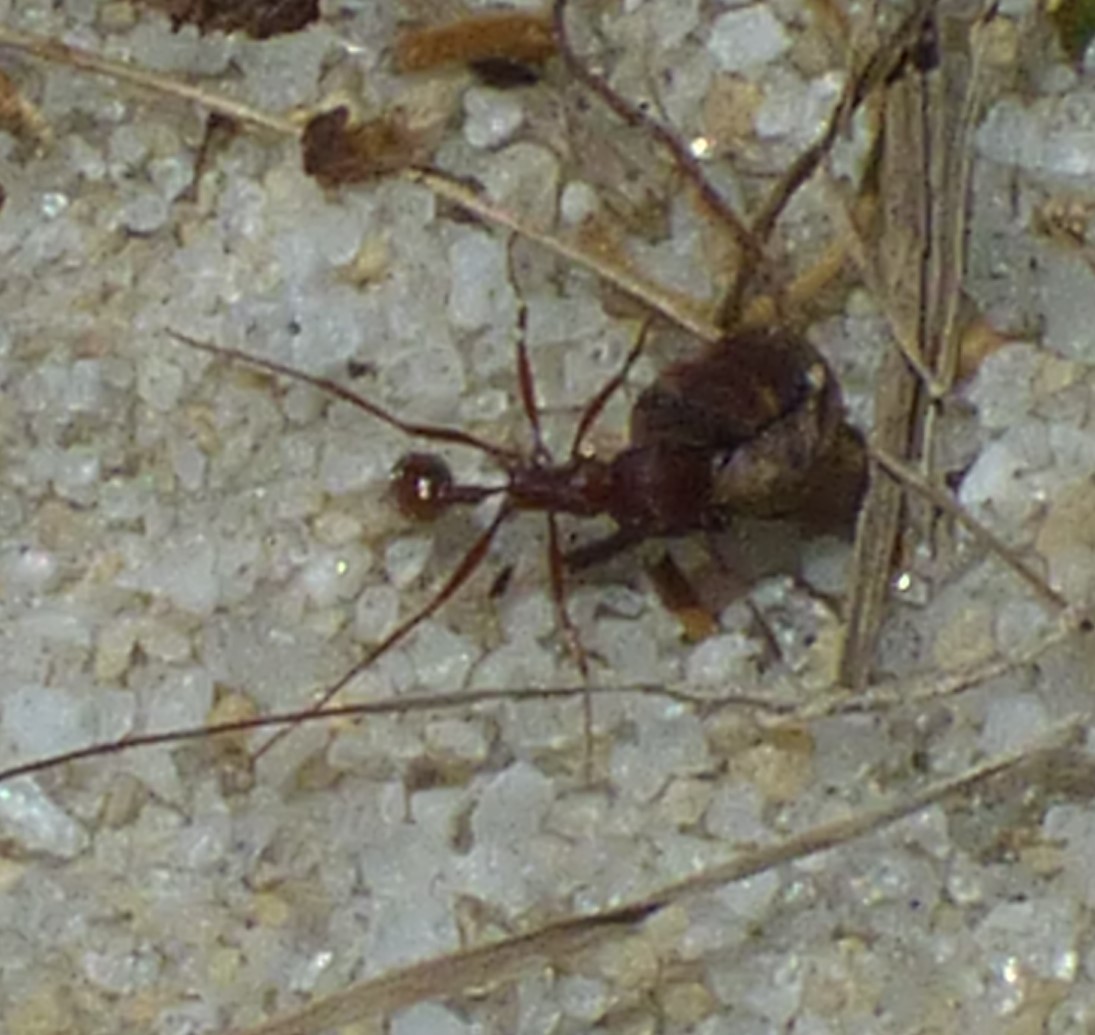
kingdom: Animalia
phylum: Arthropoda
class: Insecta
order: Hymenoptera
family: Formicidae
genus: Pogonomyrmex
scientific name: Pogonomyrmex badius
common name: Florida harvester ant
